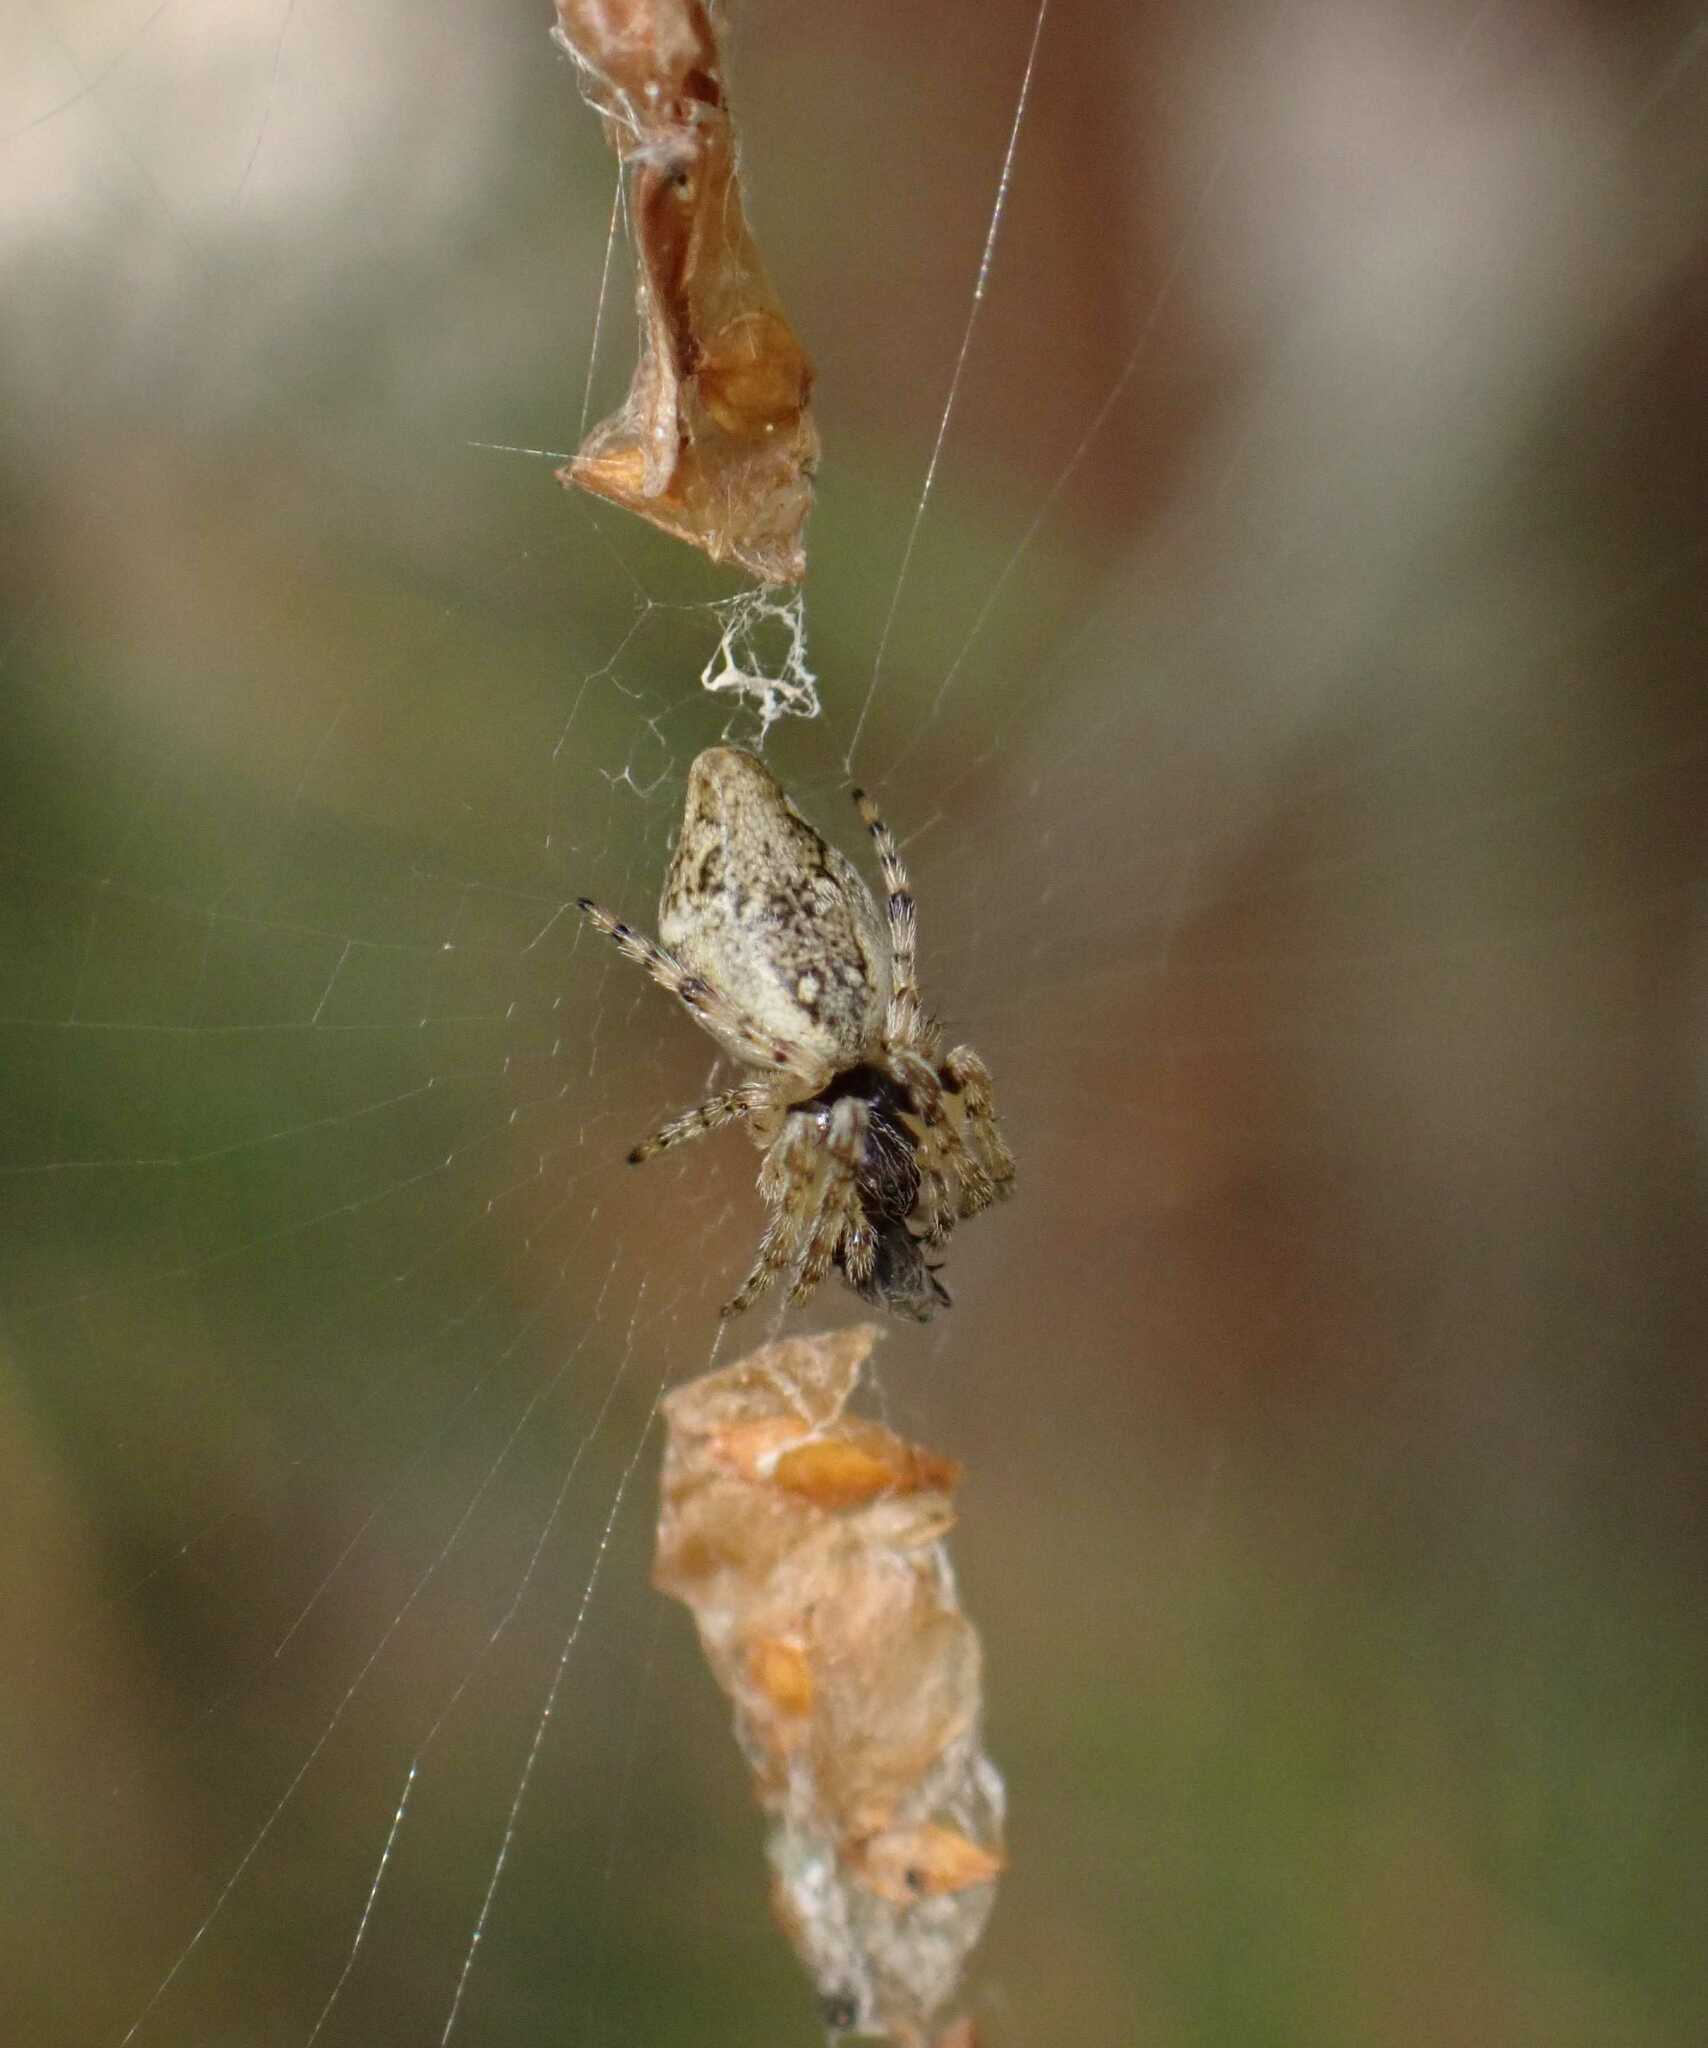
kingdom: Animalia
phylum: Arthropoda
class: Arachnida
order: Araneae
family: Araneidae
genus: Cyclosa
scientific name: Cyclosa conica
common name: Conical trashline orbweaver
